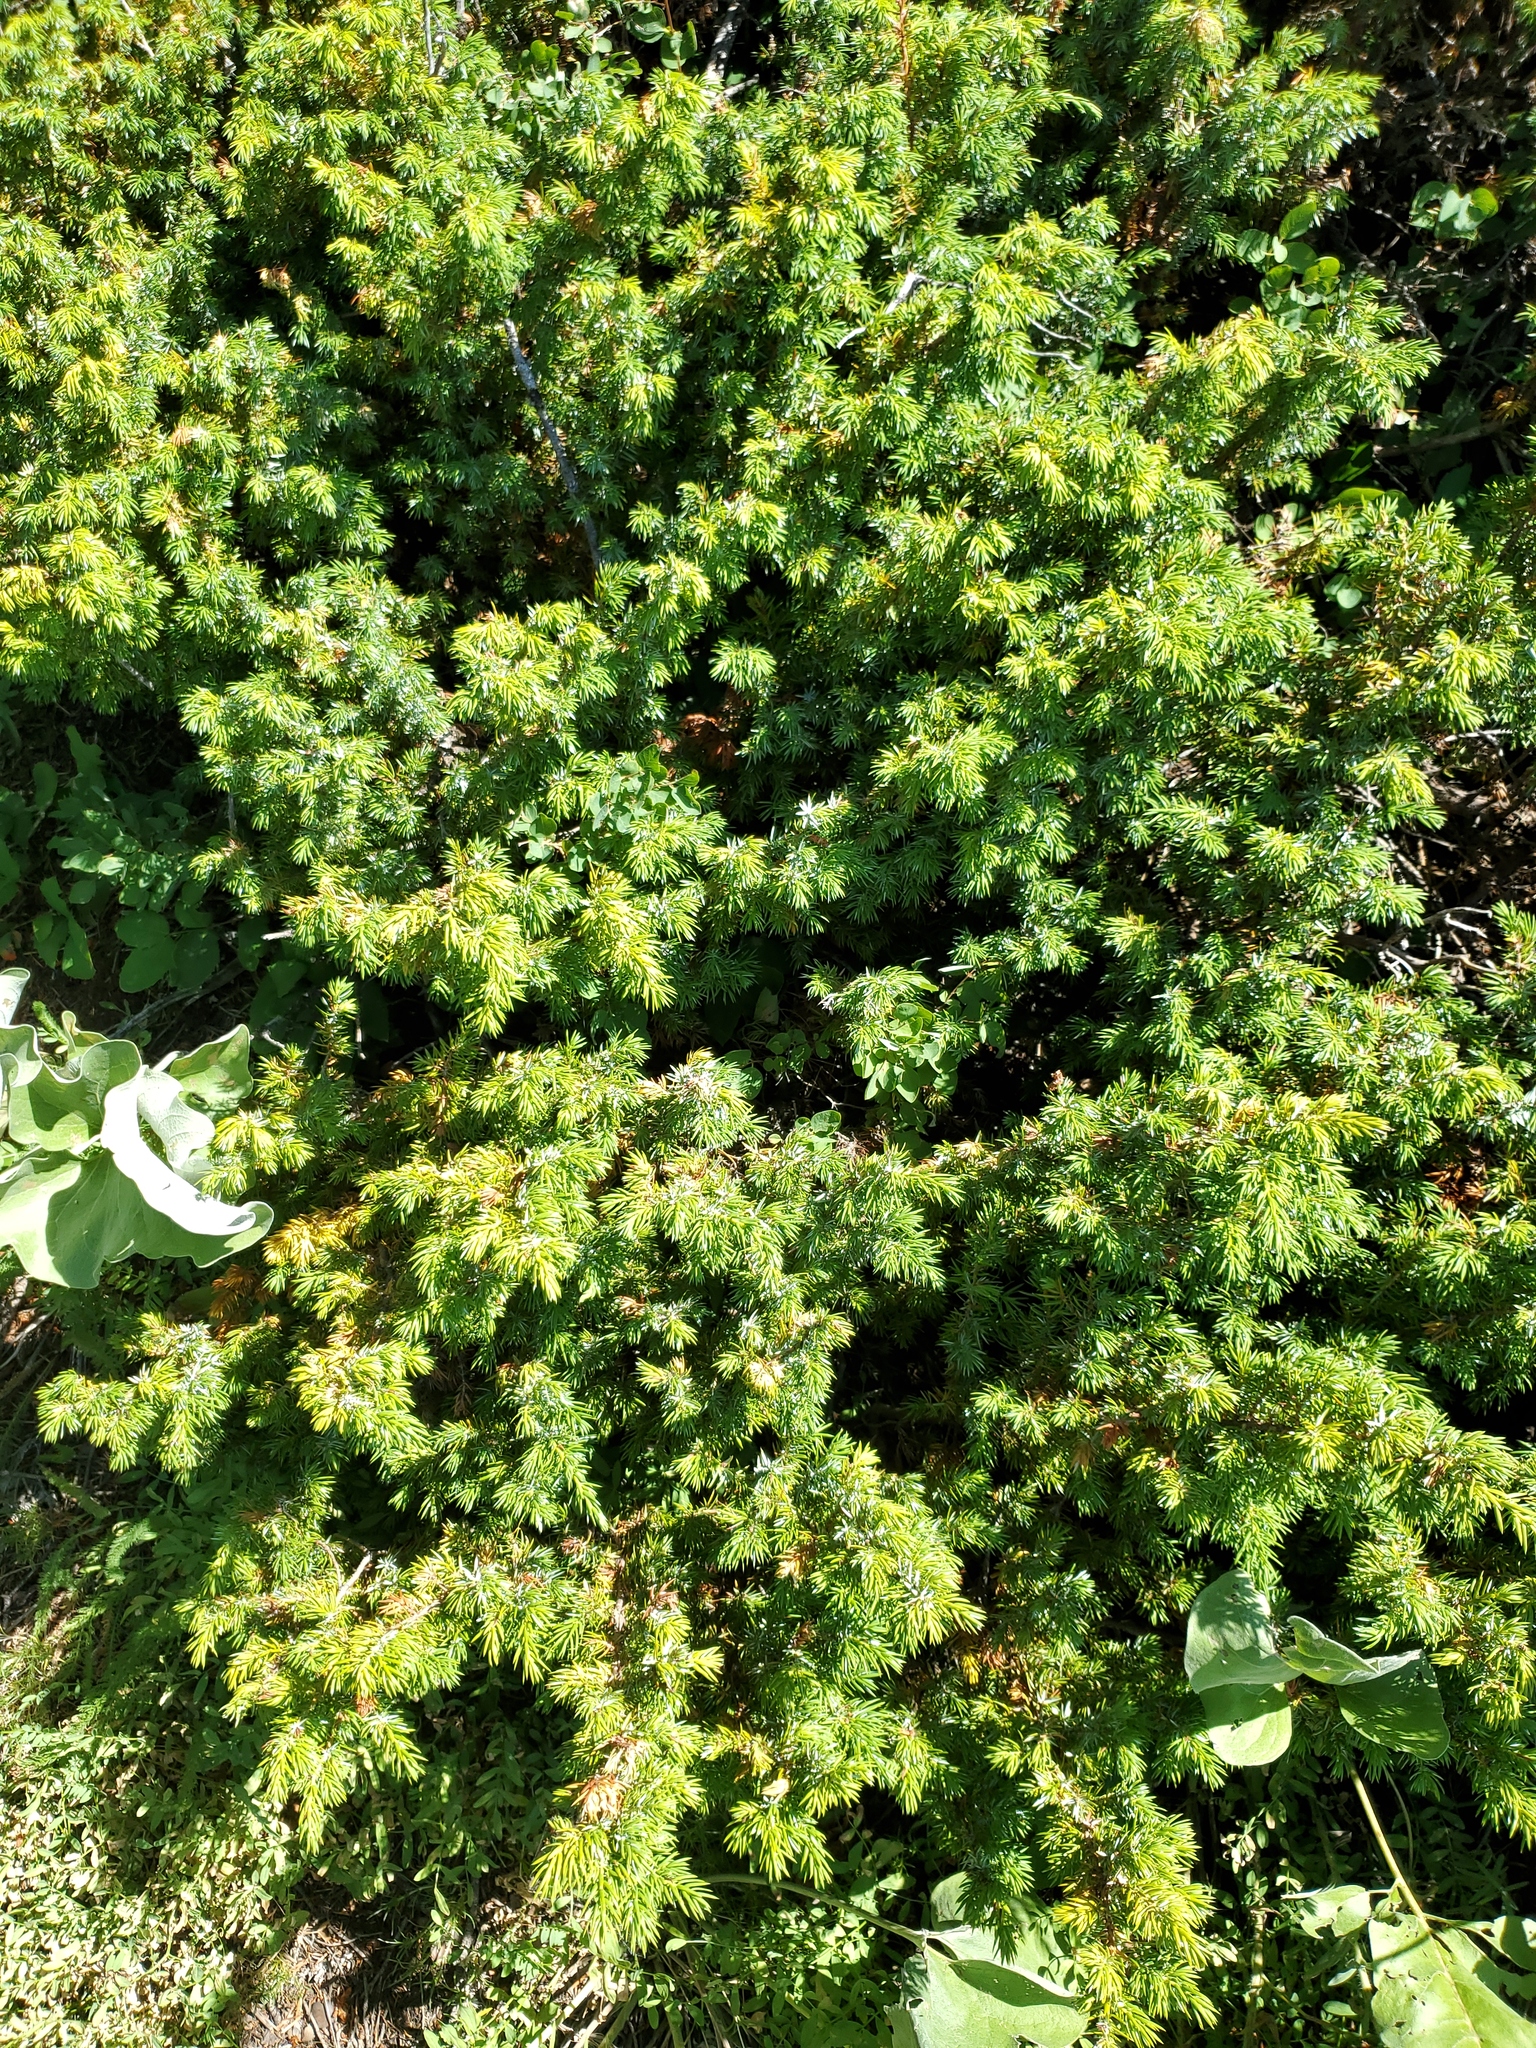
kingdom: Plantae
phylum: Tracheophyta
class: Pinopsida
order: Pinales
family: Cupressaceae
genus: Juniperus
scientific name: Juniperus communis
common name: Common juniper
